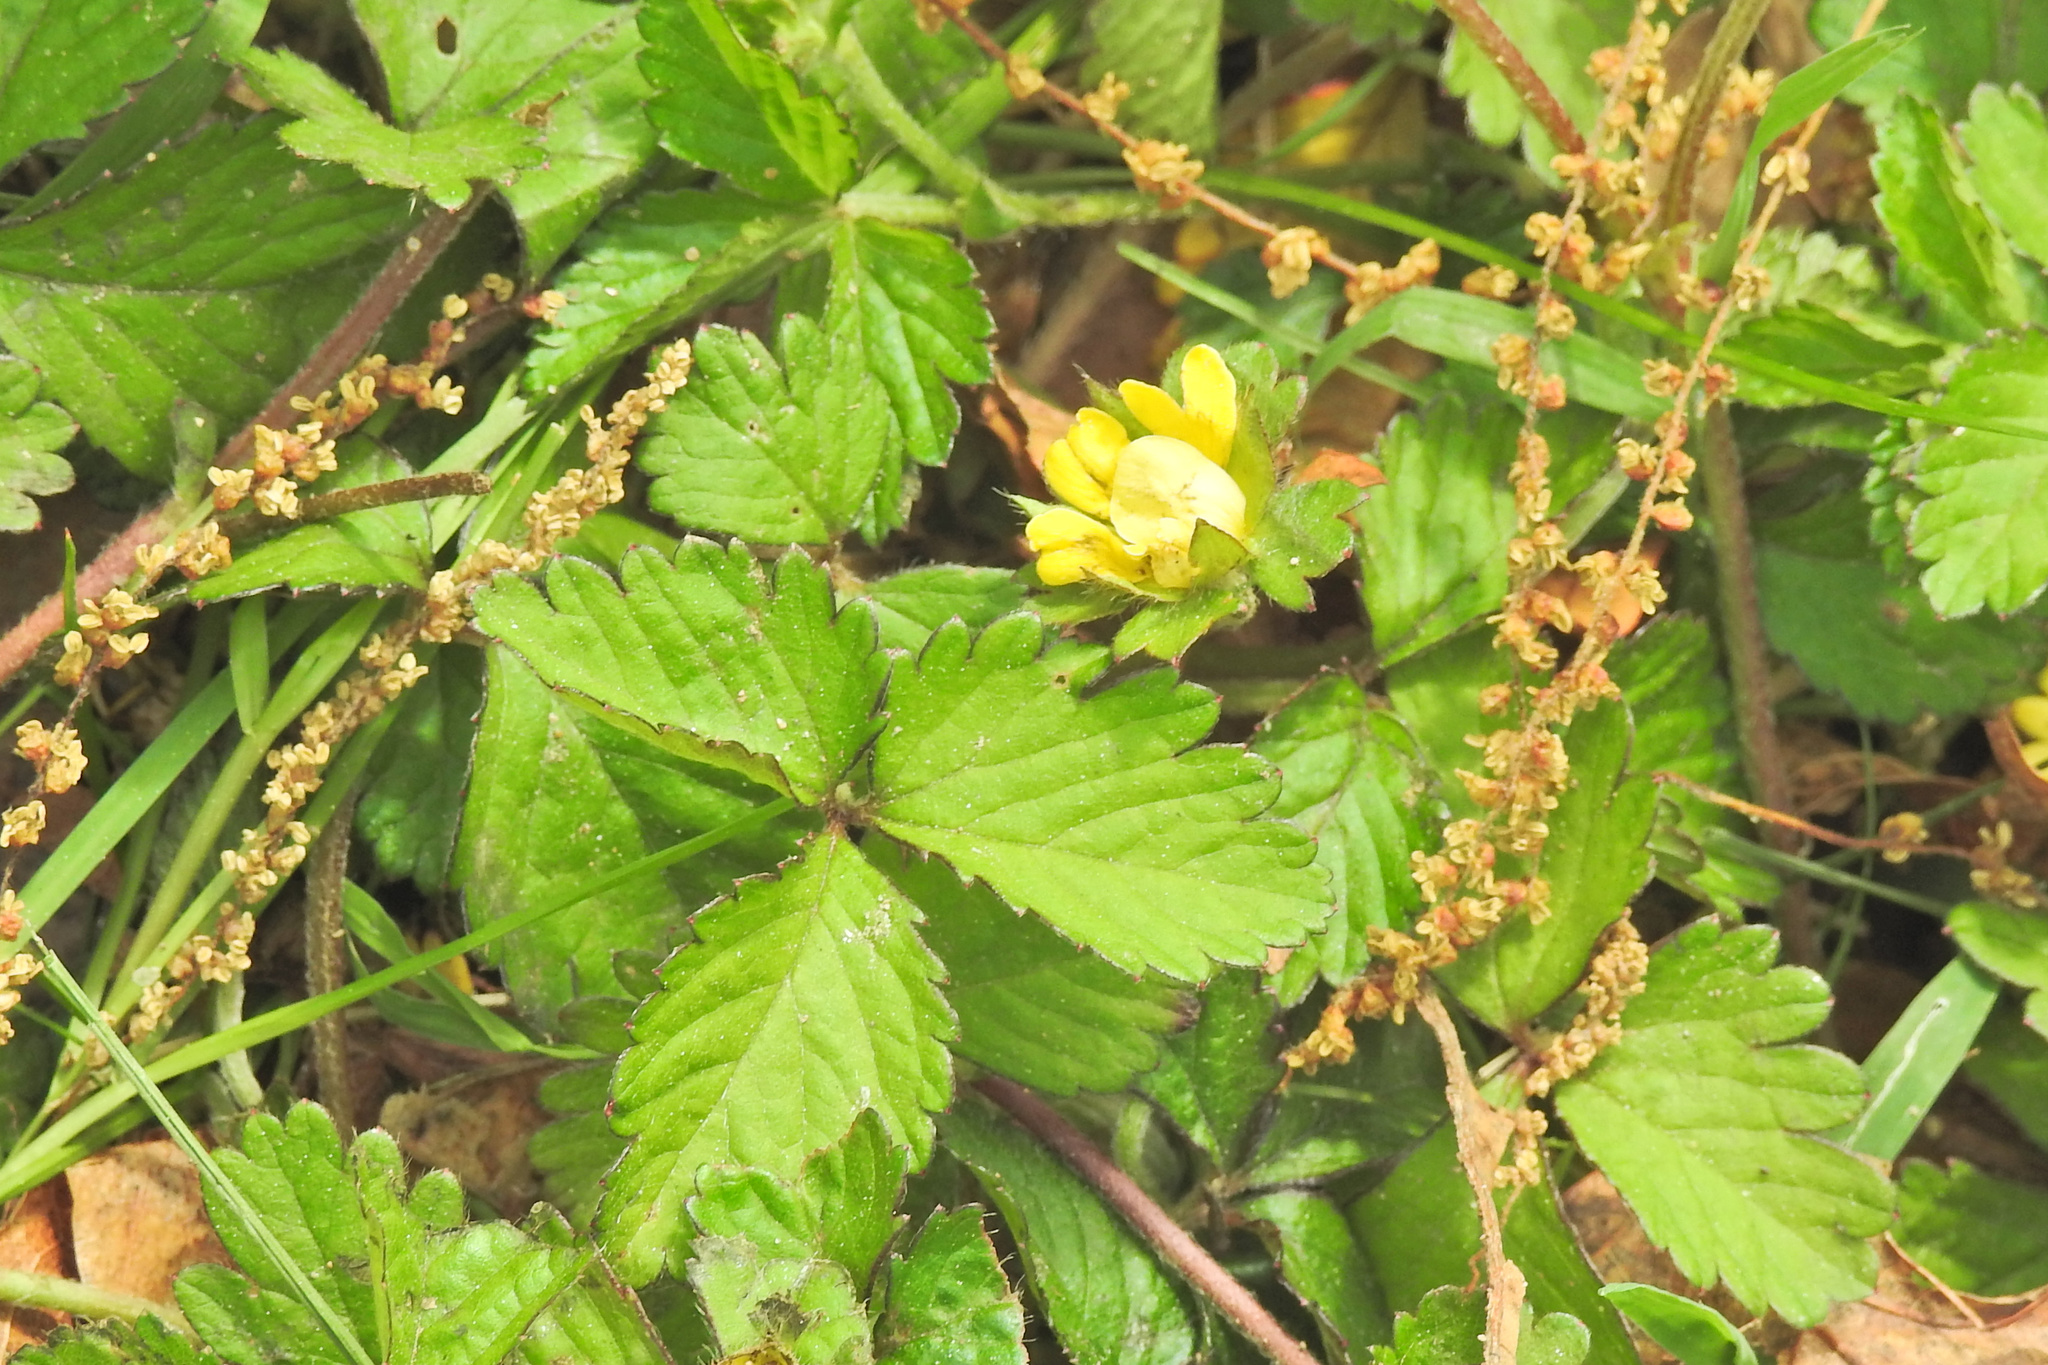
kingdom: Plantae
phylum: Tracheophyta
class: Magnoliopsida
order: Rosales
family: Rosaceae
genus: Potentilla
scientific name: Potentilla indica
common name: Yellow-flowered strawberry
